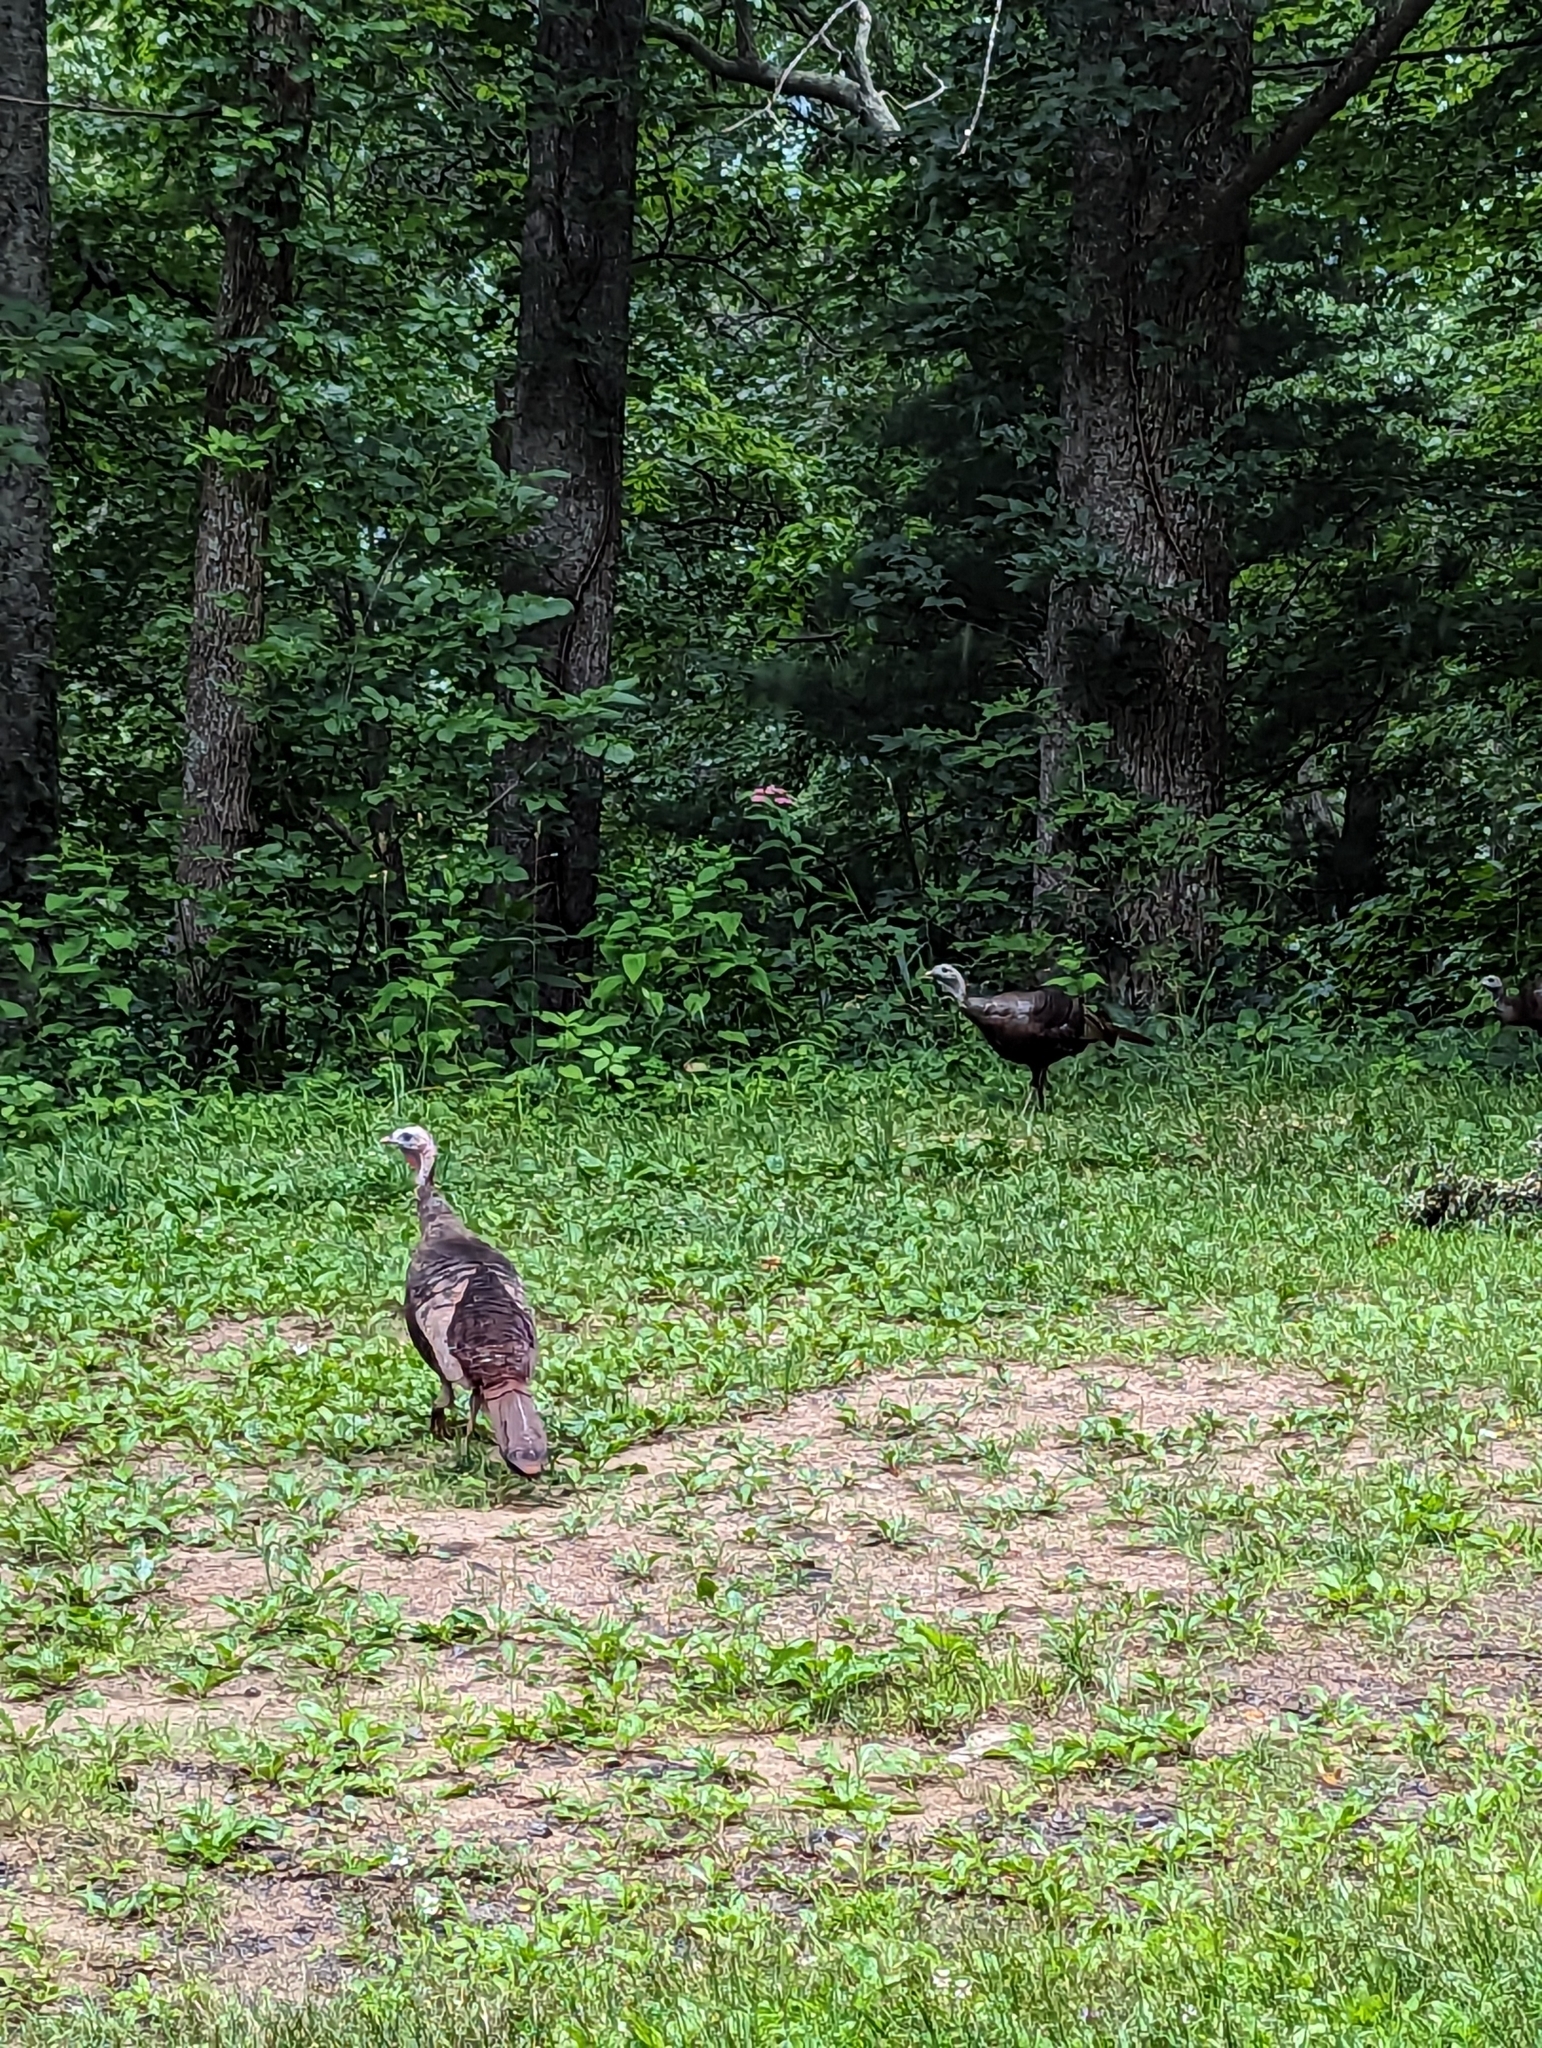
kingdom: Animalia
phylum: Chordata
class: Aves
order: Galliformes
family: Phasianidae
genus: Meleagris
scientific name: Meleagris gallopavo
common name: Wild turkey
